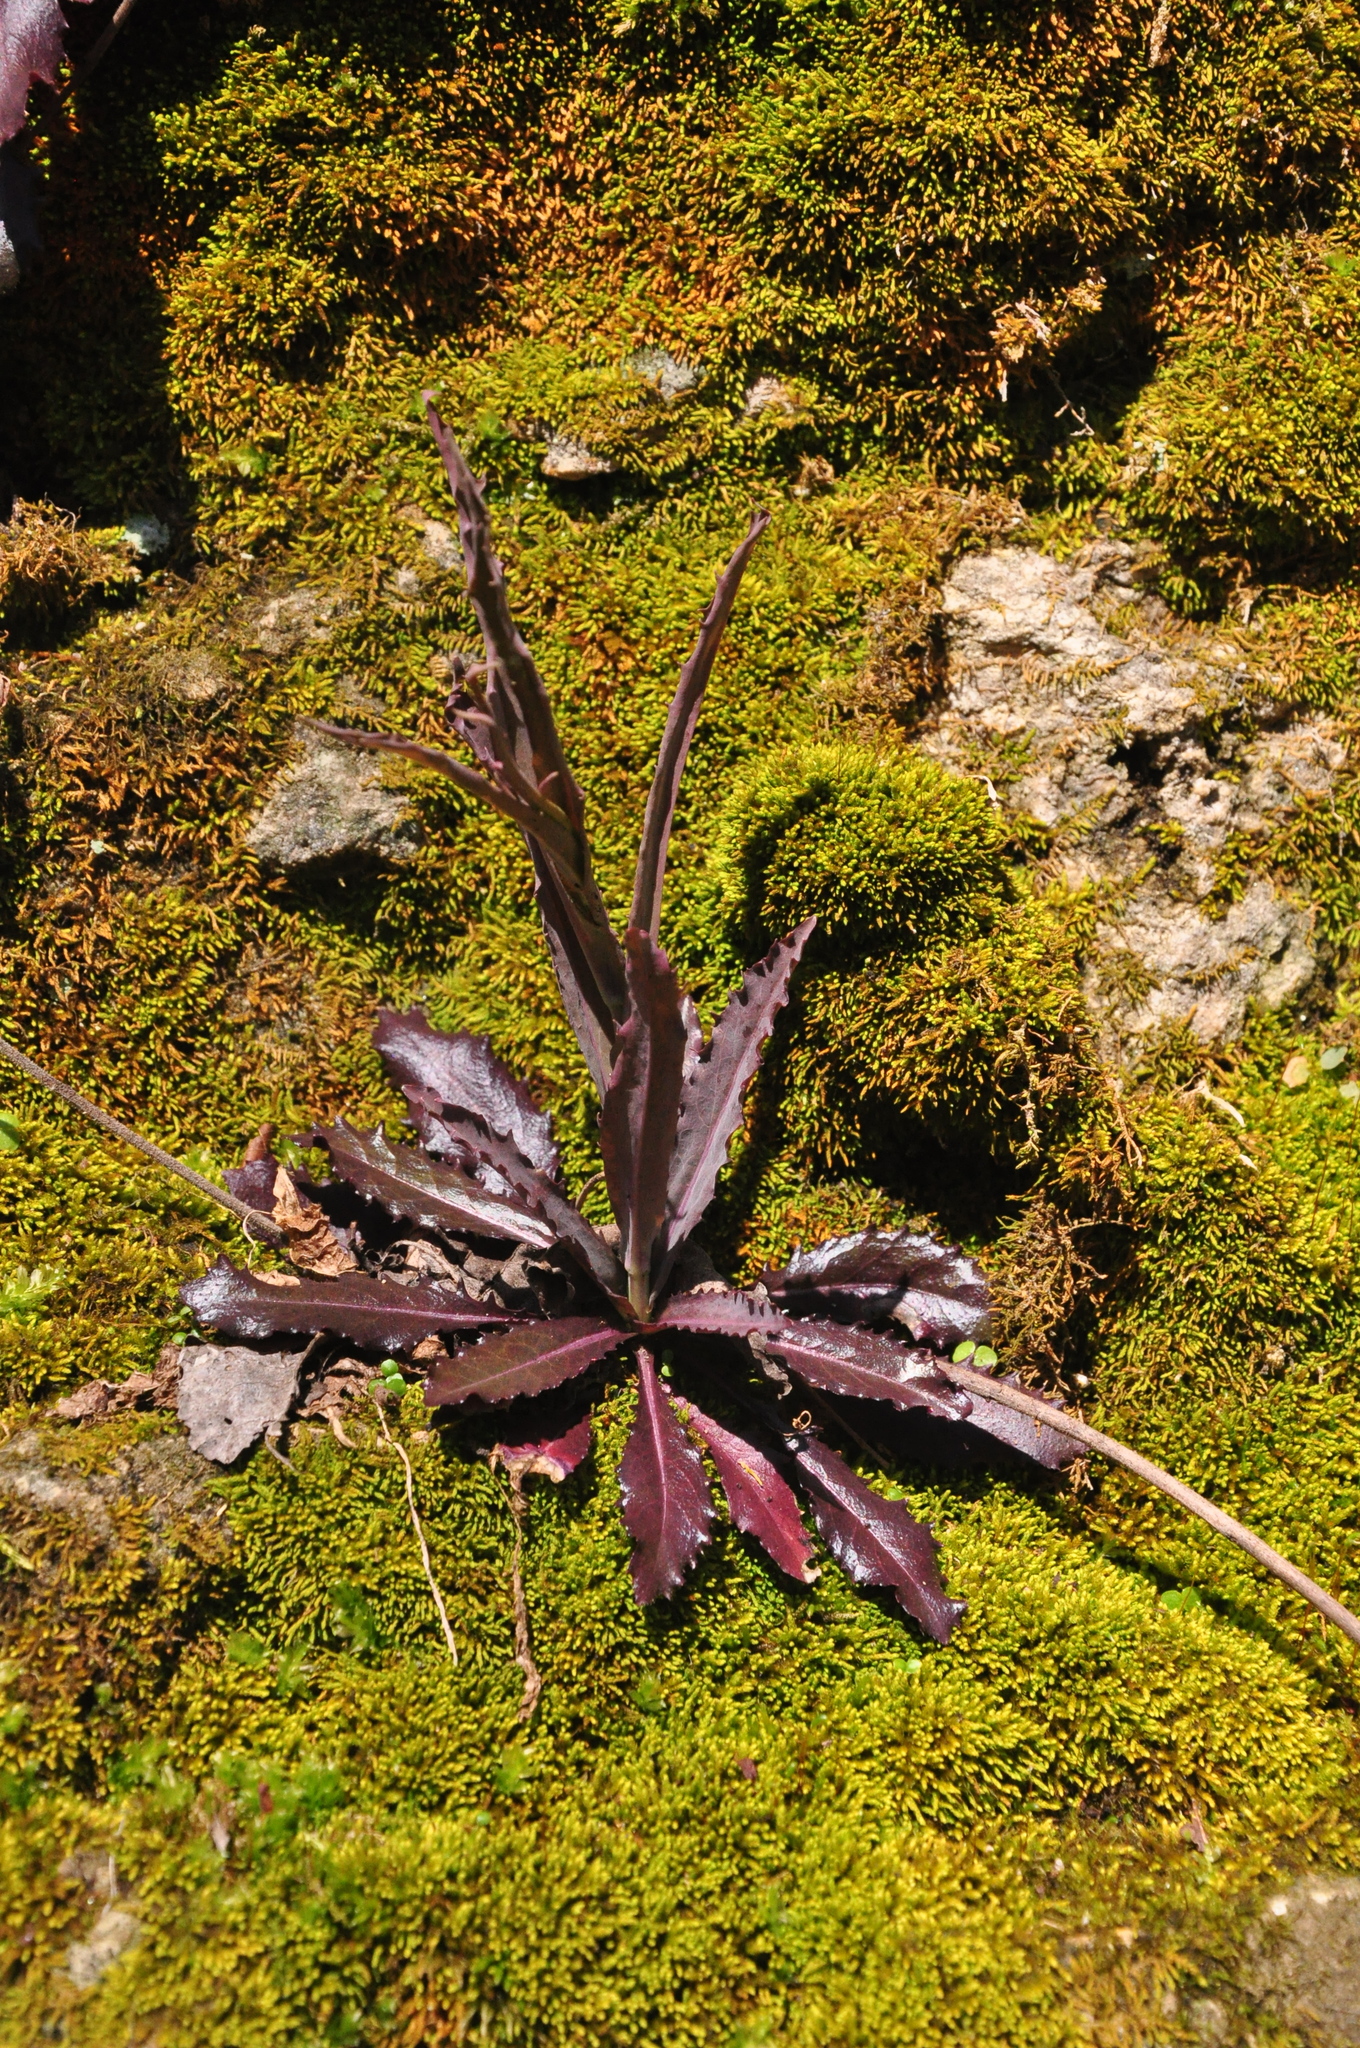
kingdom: Plantae
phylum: Tracheophyta
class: Magnoliopsida
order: Brassicales
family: Brassicaceae
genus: Borodinia
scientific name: Borodinia laevigata
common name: Smooth rockcress
